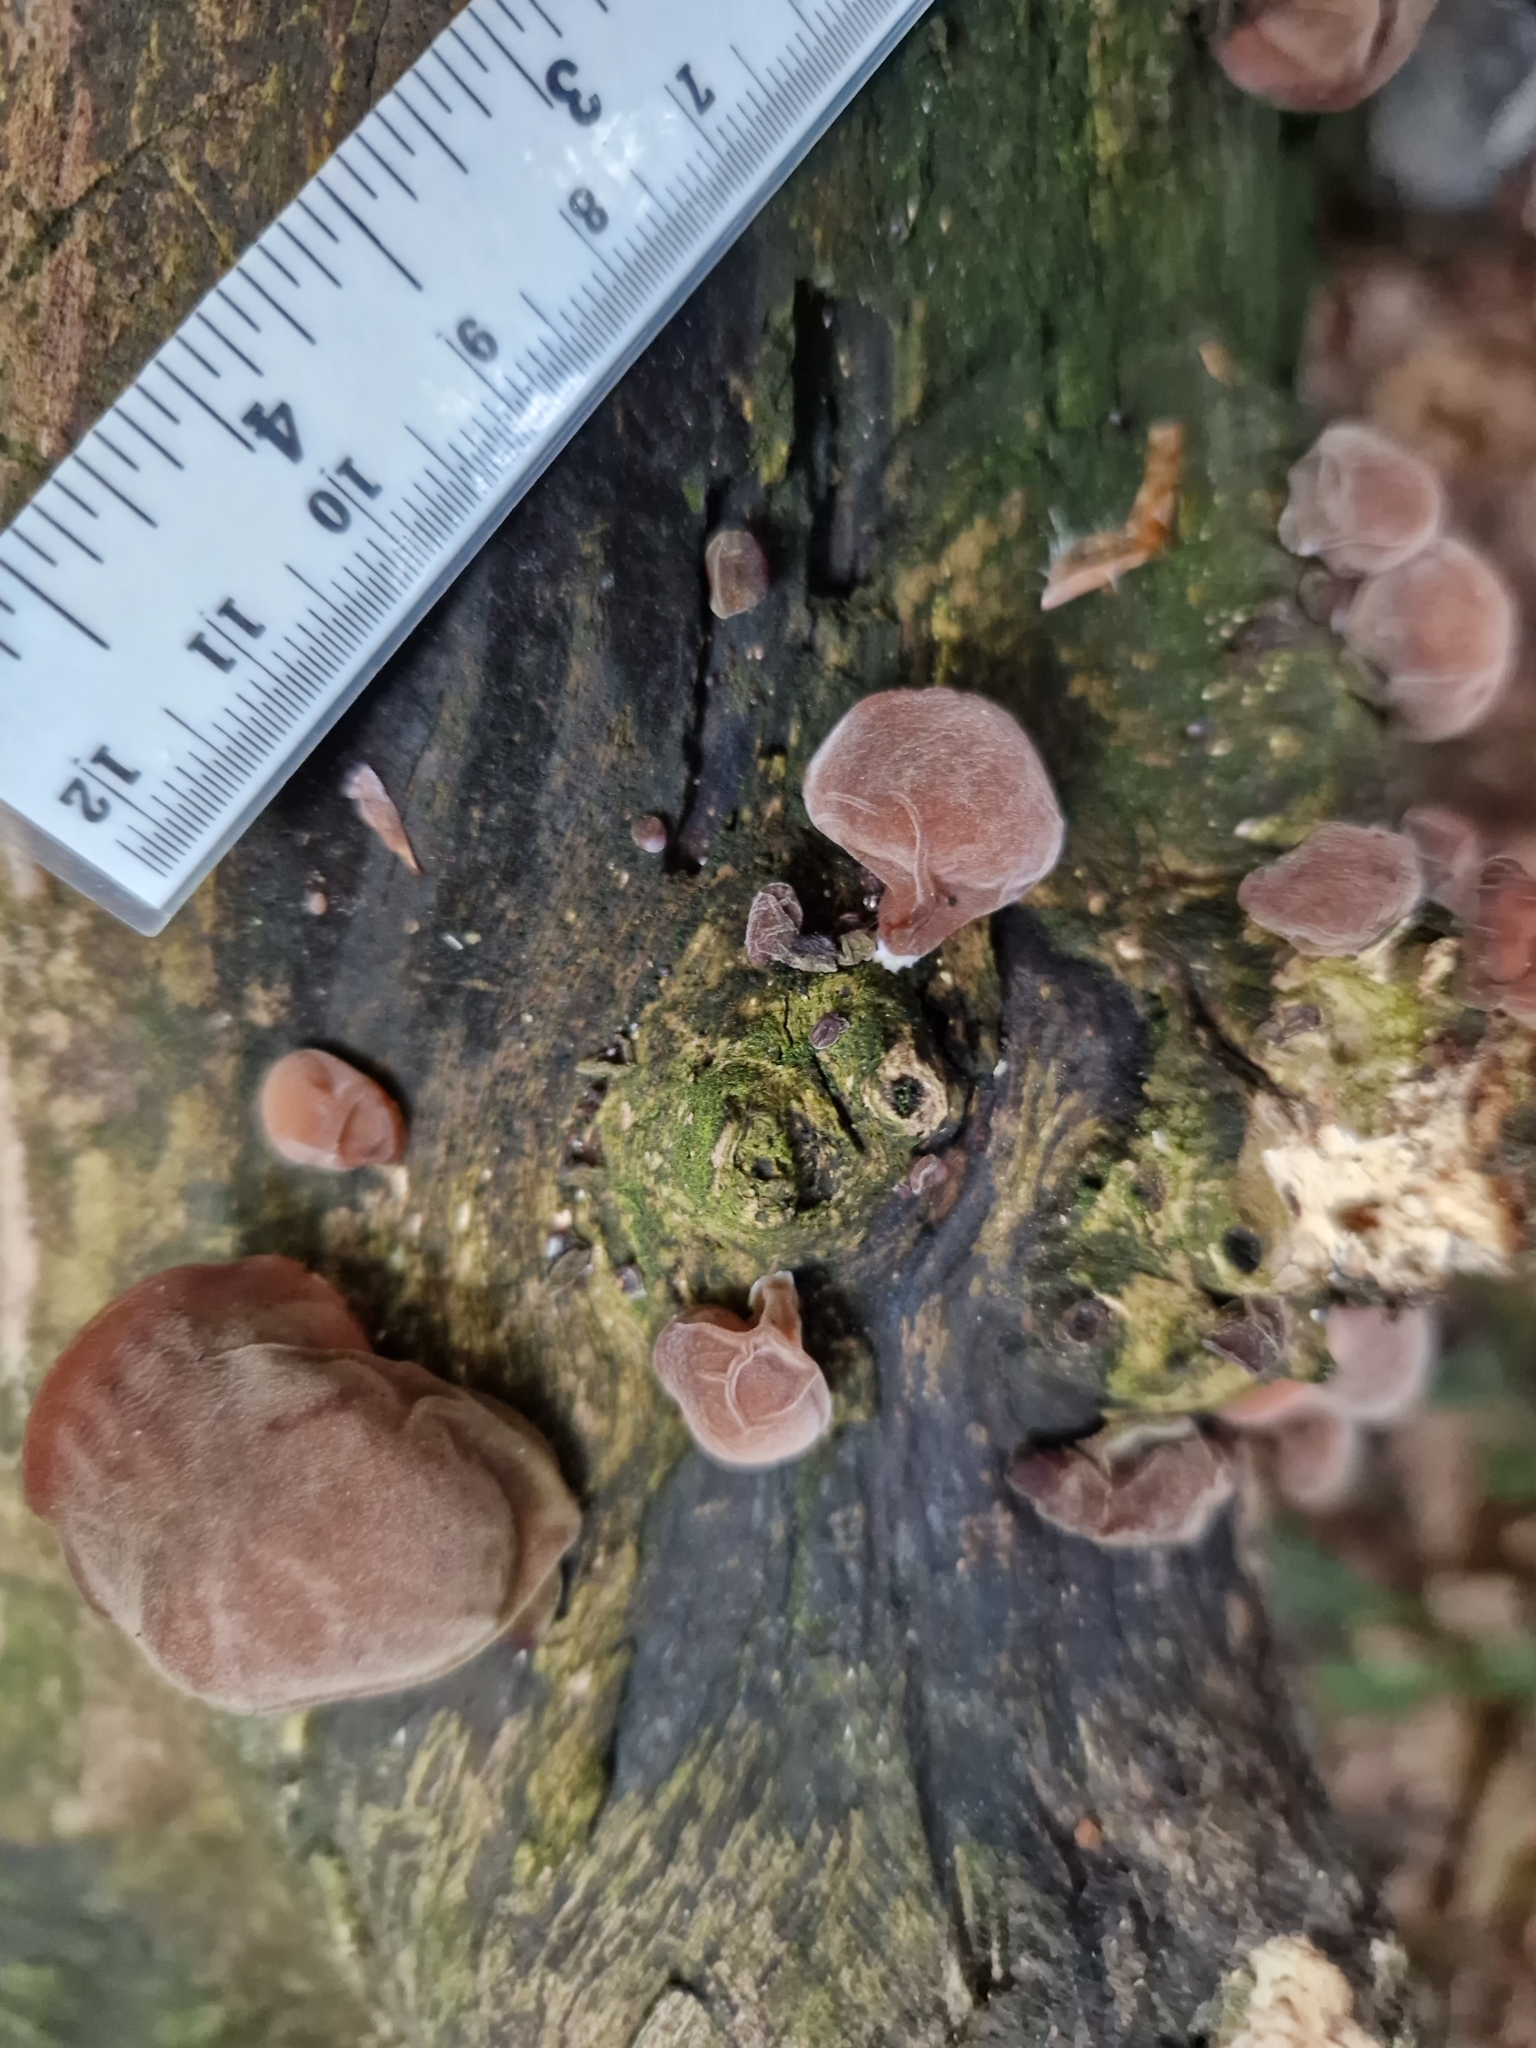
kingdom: Fungi
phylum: Basidiomycota
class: Agaricomycetes
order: Auriculariales
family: Auriculariaceae
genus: Auricularia
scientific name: Auricularia auricula-judae
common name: Jelly ear
